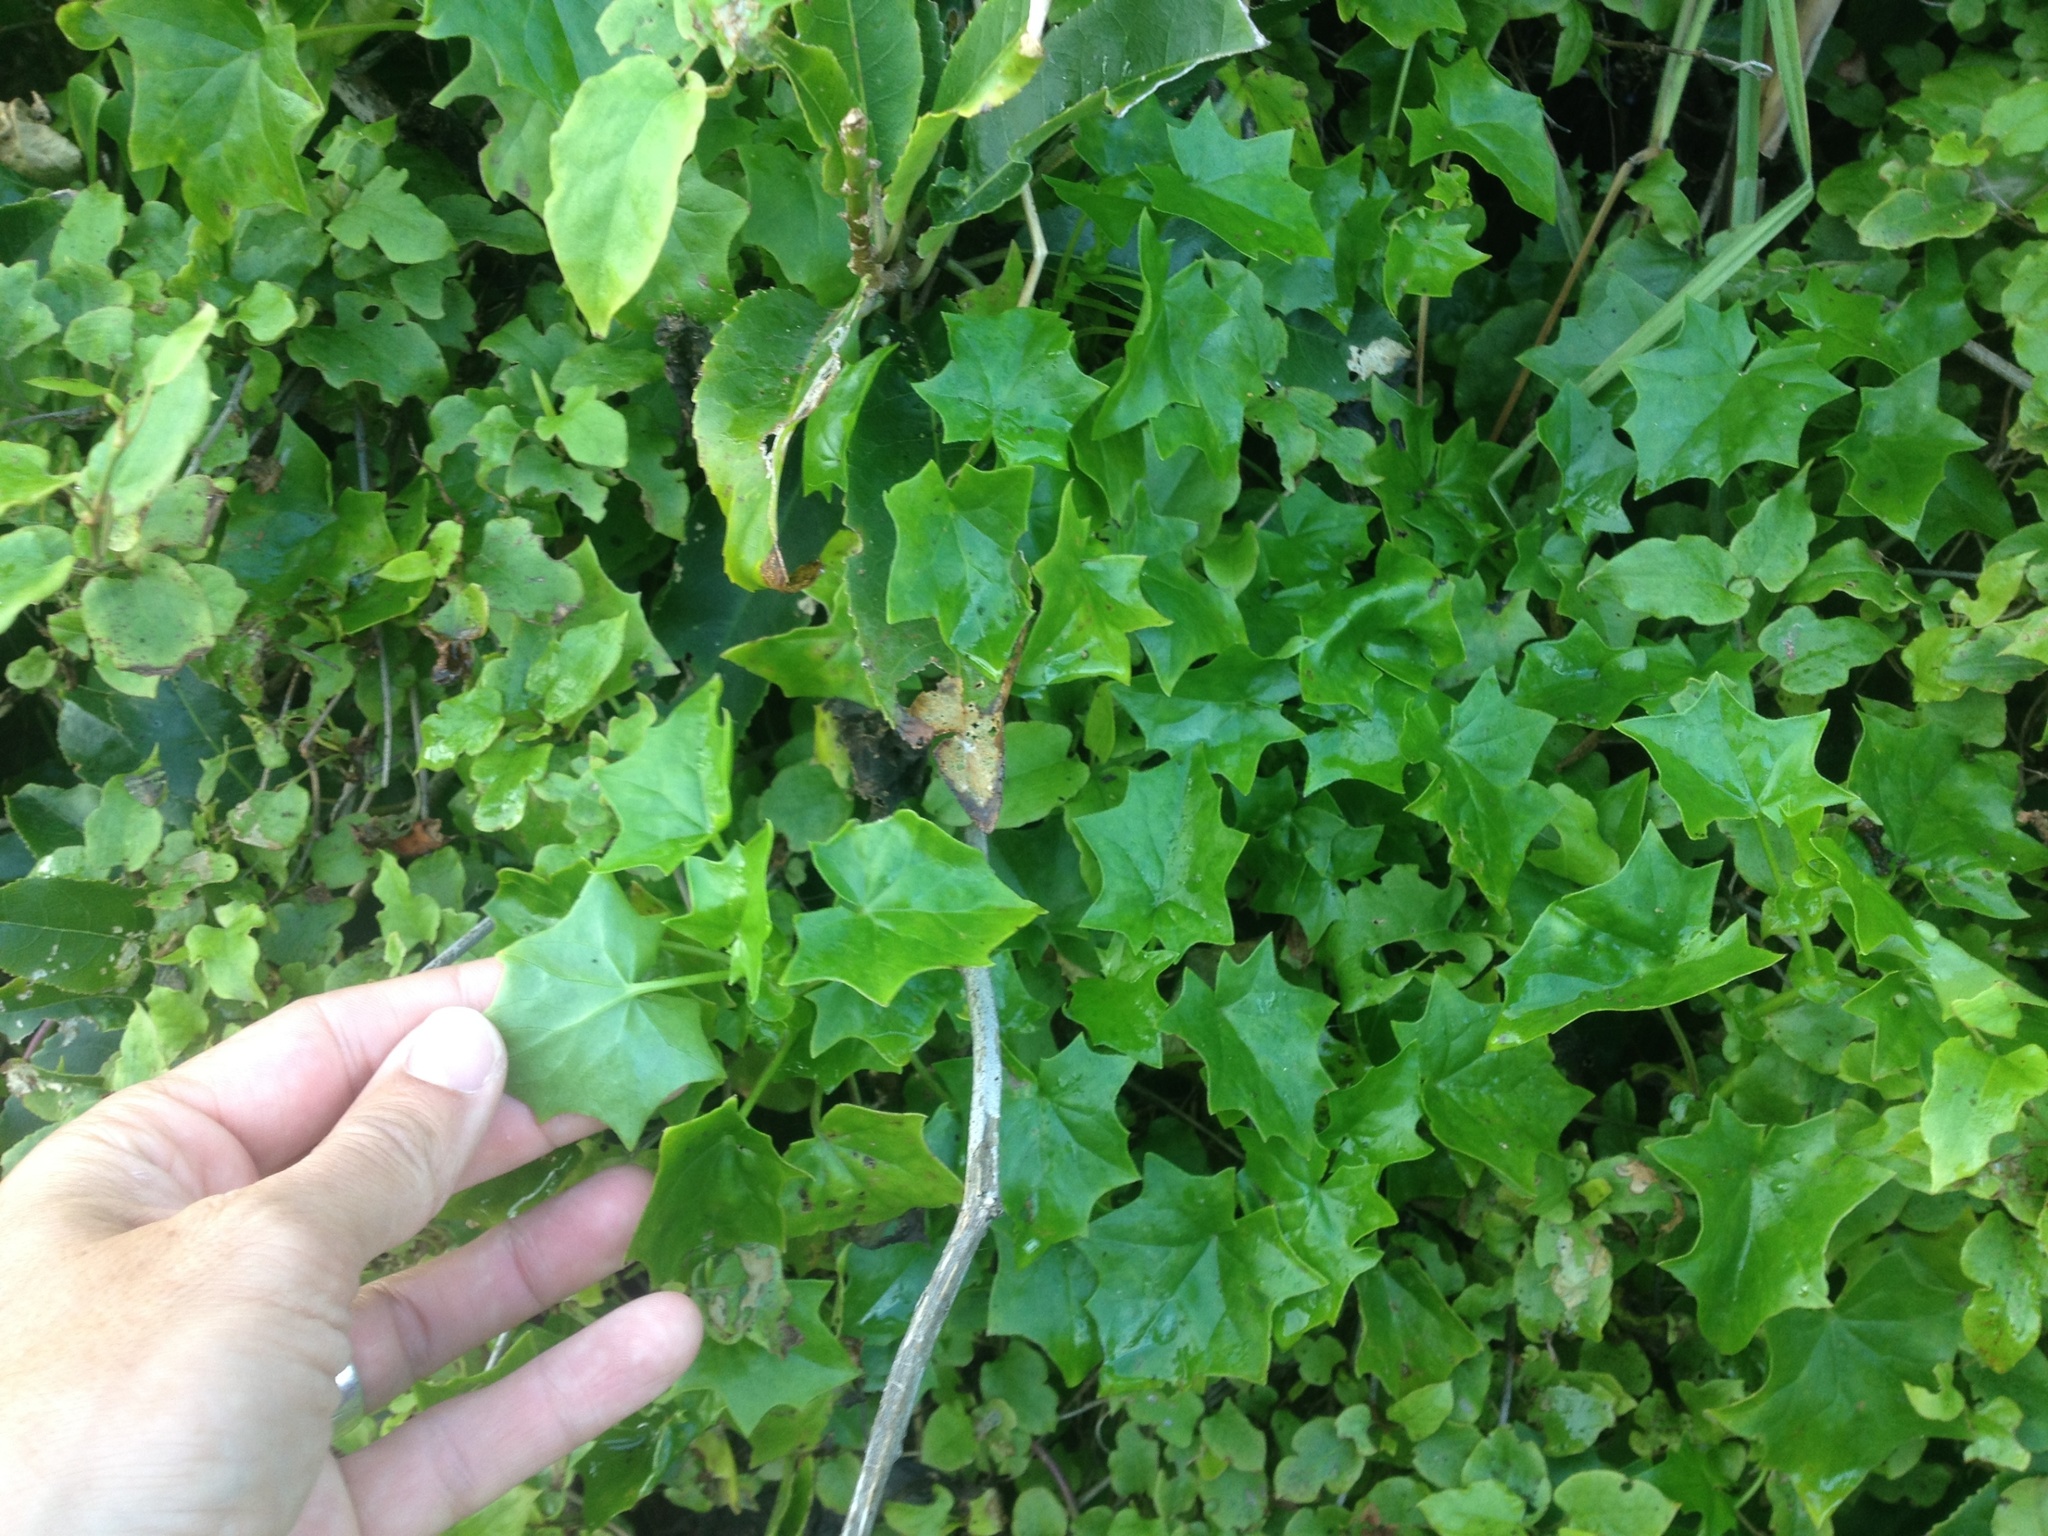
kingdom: Plantae
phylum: Tracheophyta
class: Magnoliopsida
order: Asterales
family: Asteraceae
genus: Delairea
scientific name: Delairea odorata
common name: Cape-ivy
